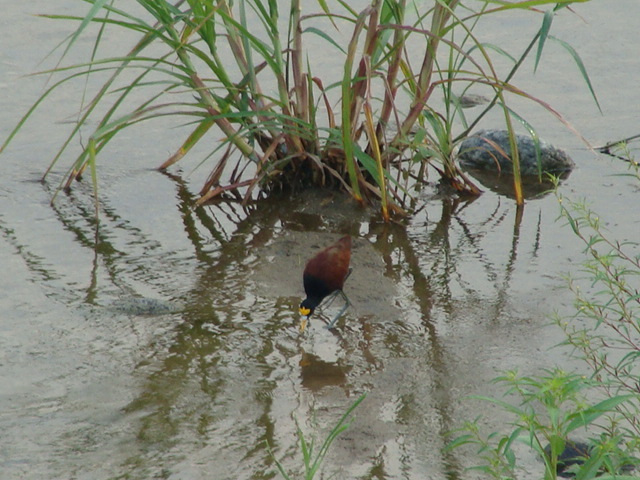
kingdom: Animalia
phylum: Chordata
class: Aves
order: Charadriiformes
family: Jacanidae
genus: Jacana
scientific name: Jacana spinosa
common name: Northern jacana
